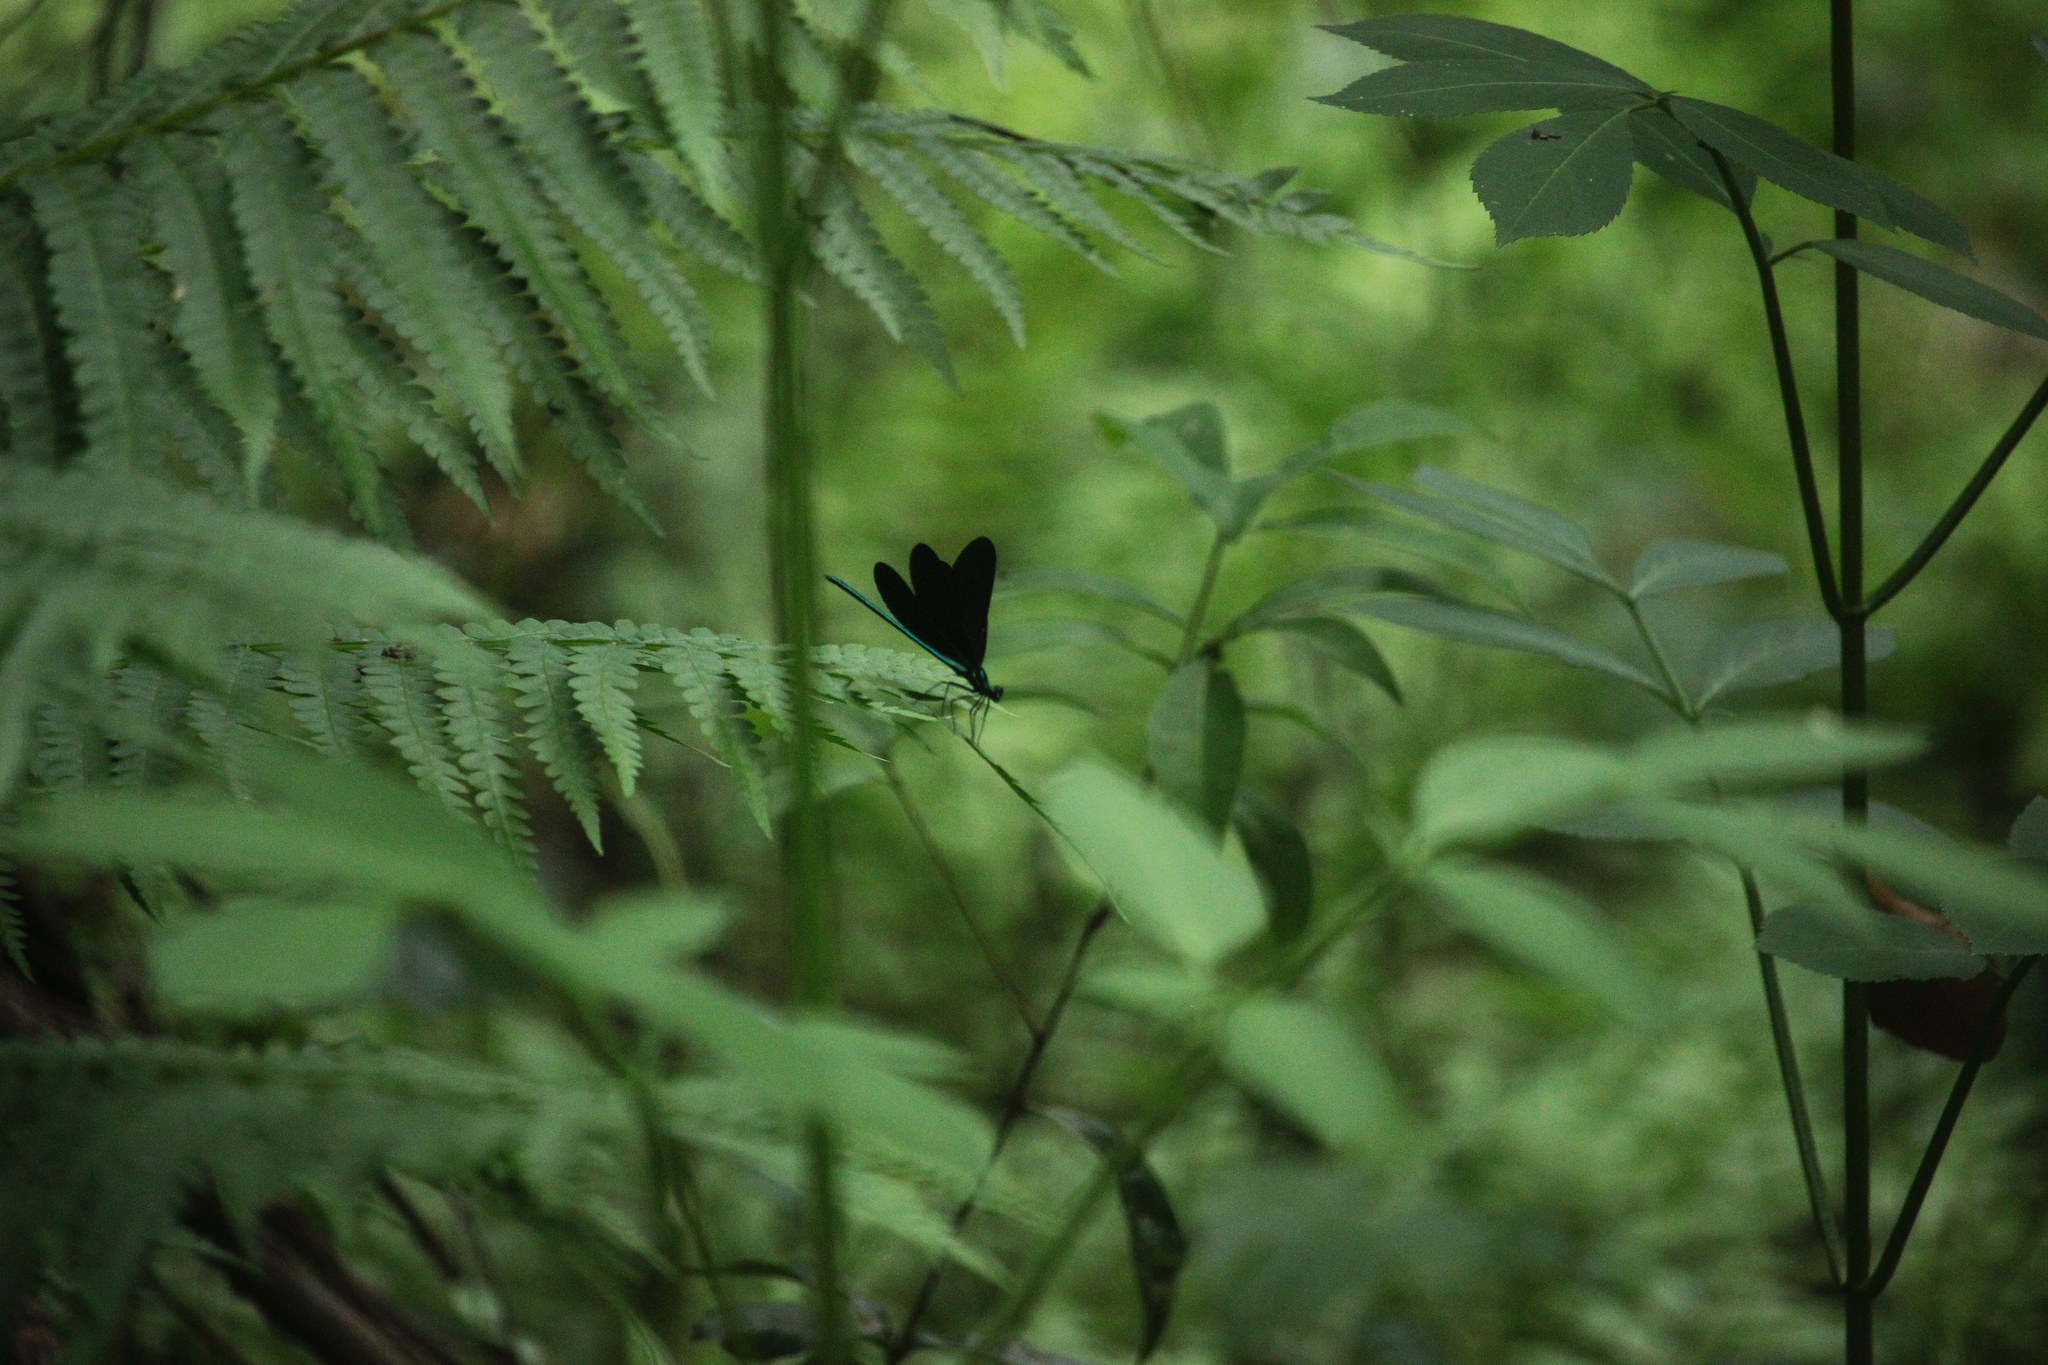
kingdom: Animalia
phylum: Arthropoda
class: Insecta
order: Odonata
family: Calopterygidae
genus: Calopteryx
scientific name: Calopteryx maculata
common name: Ebony jewelwing
